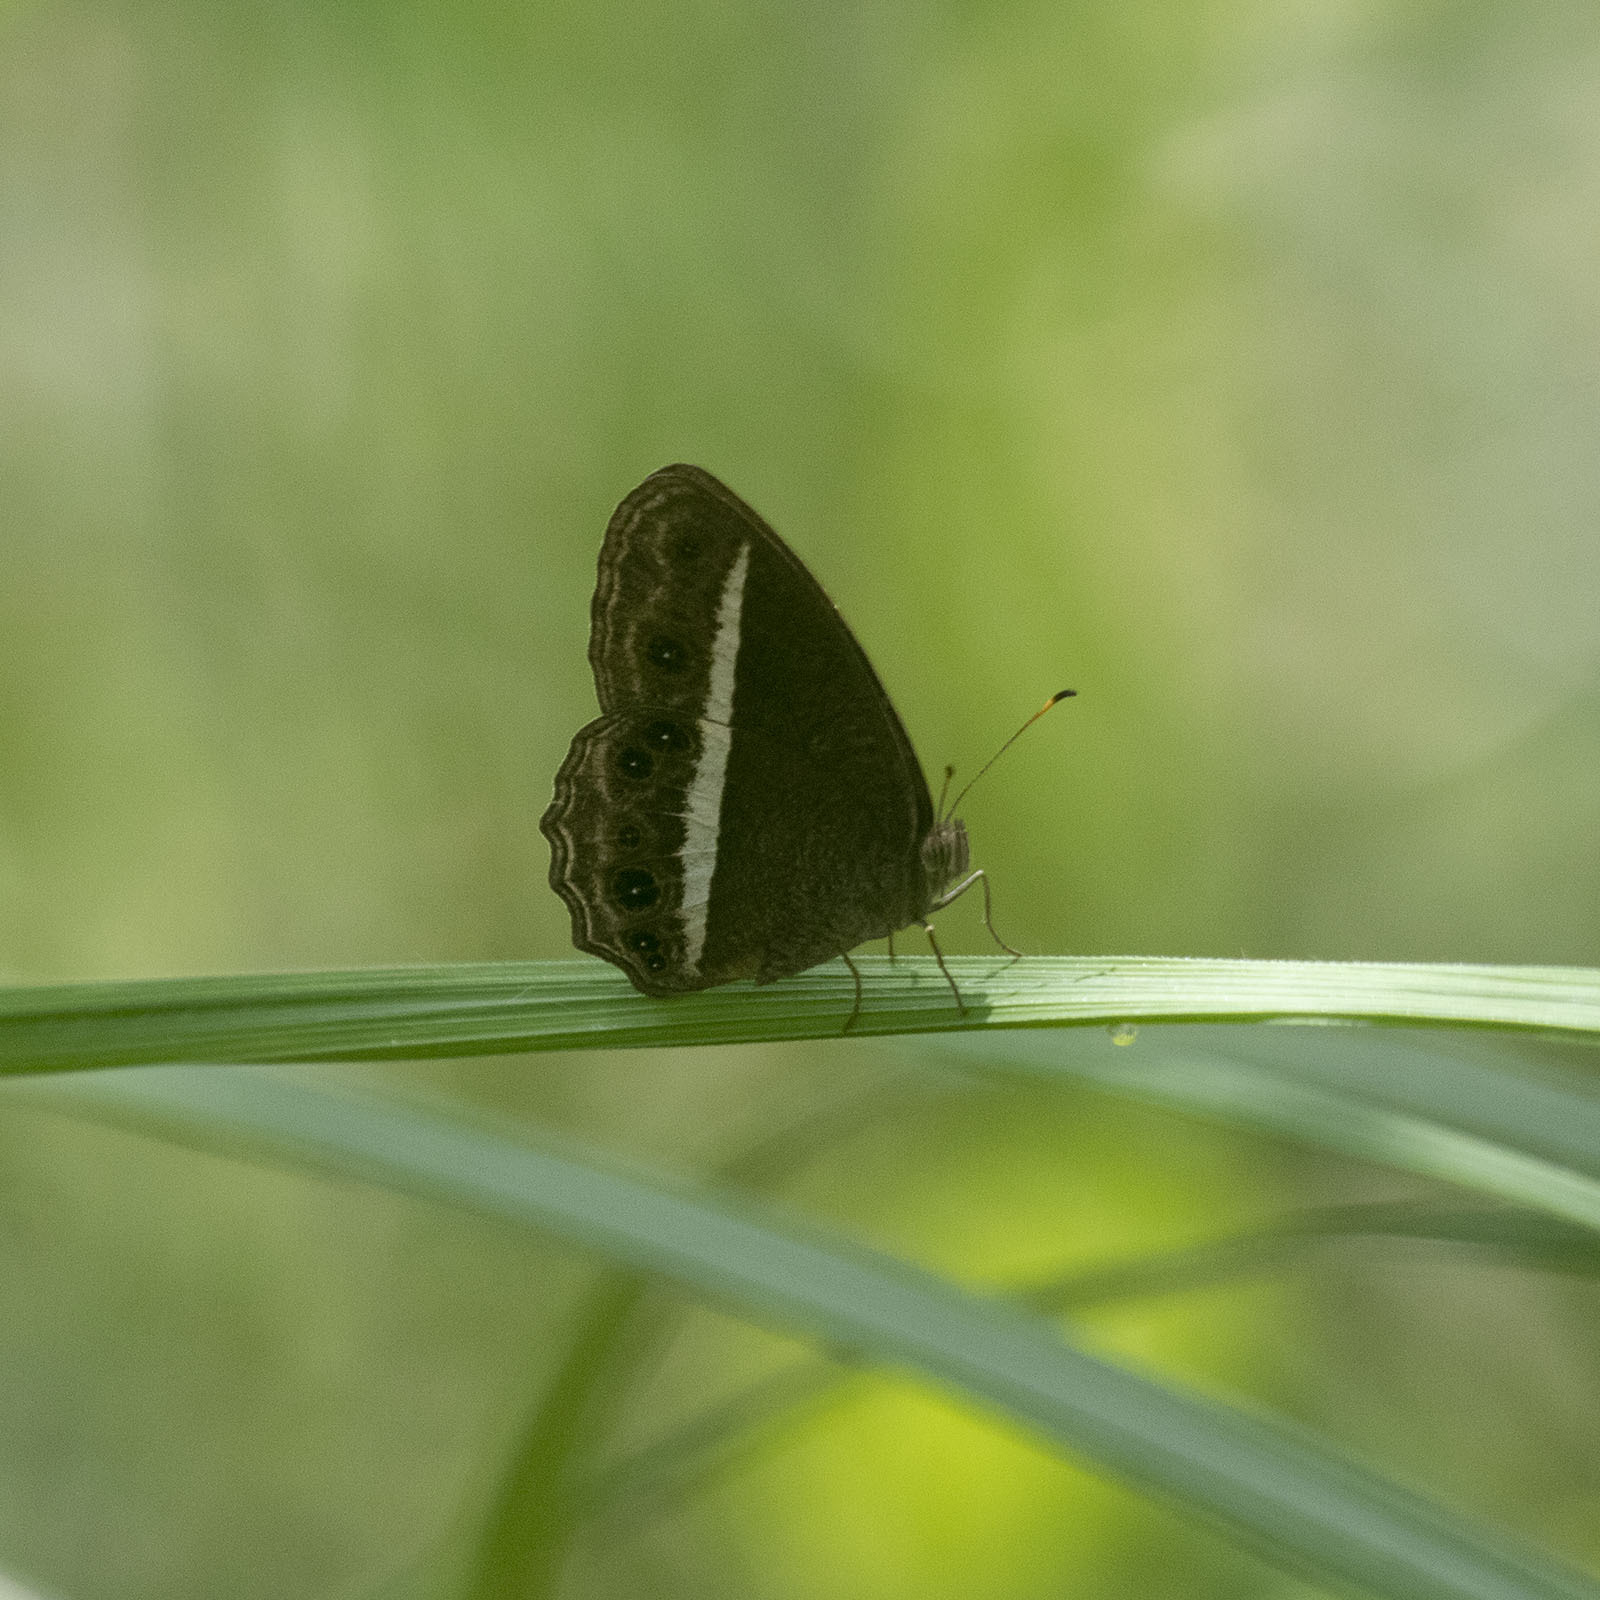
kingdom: Animalia
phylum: Arthropoda
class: Insecta
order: Lepidoptera
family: Nymphalidae
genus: Mycalesis
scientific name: Mycalesis Telinga spec
